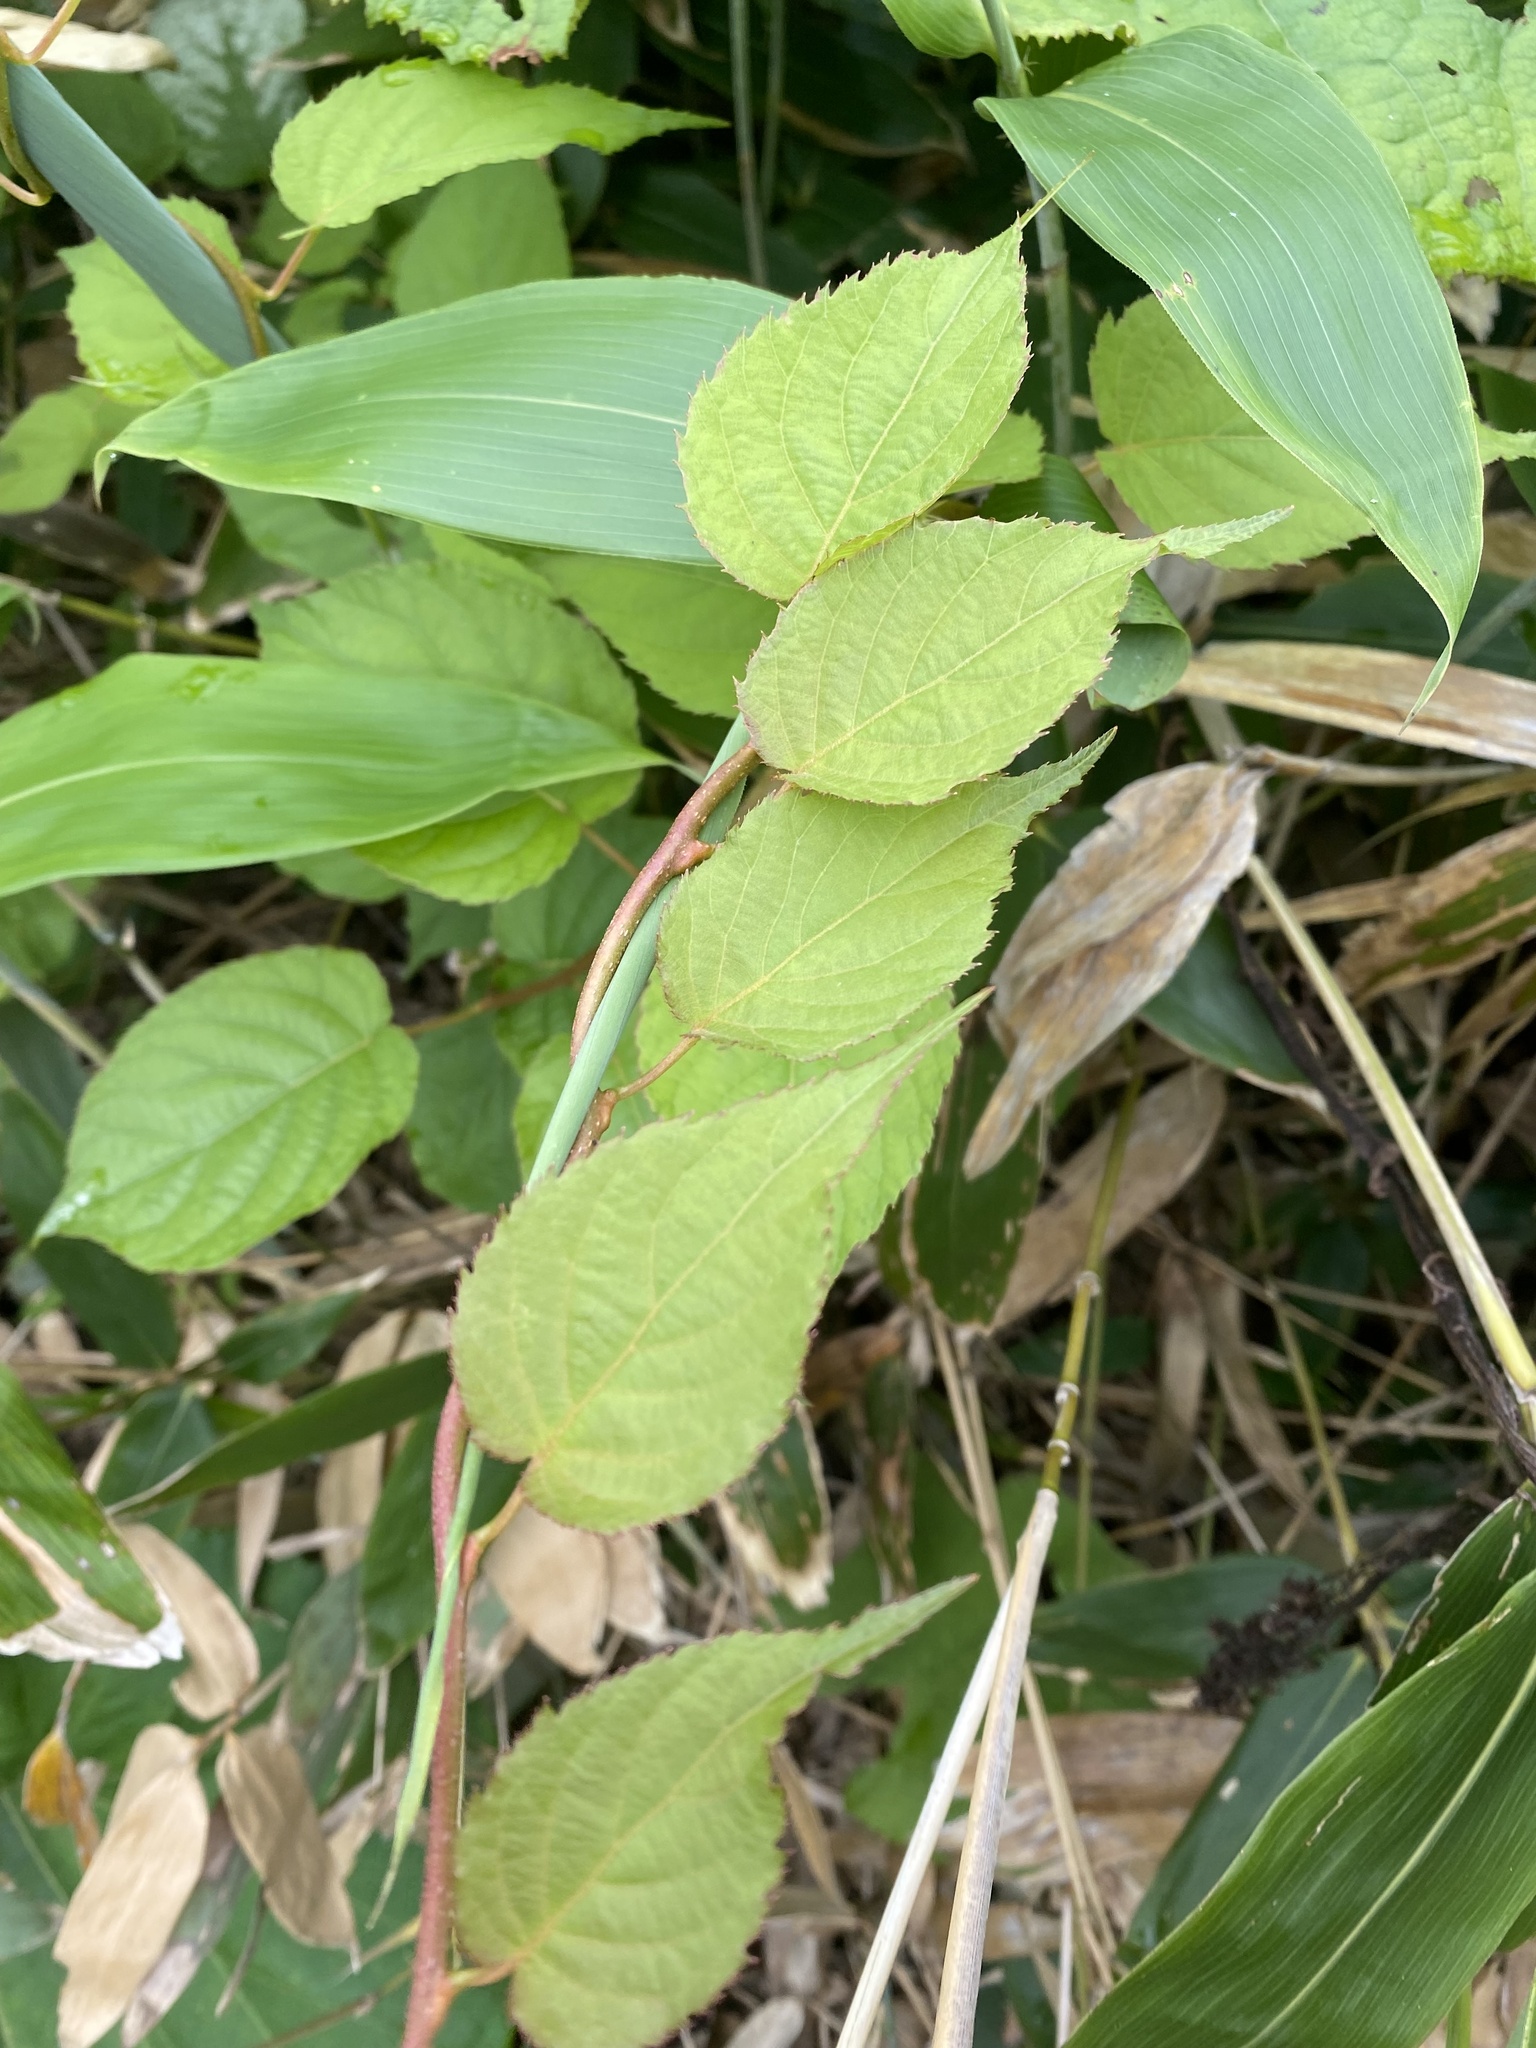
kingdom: Plantae
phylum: Tracheophyta
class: Magnoliopsida
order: Ericales
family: Actinidiaceae
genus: Actinidia
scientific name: Actinidia kolomikta
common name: Arctic beauty kiwi
